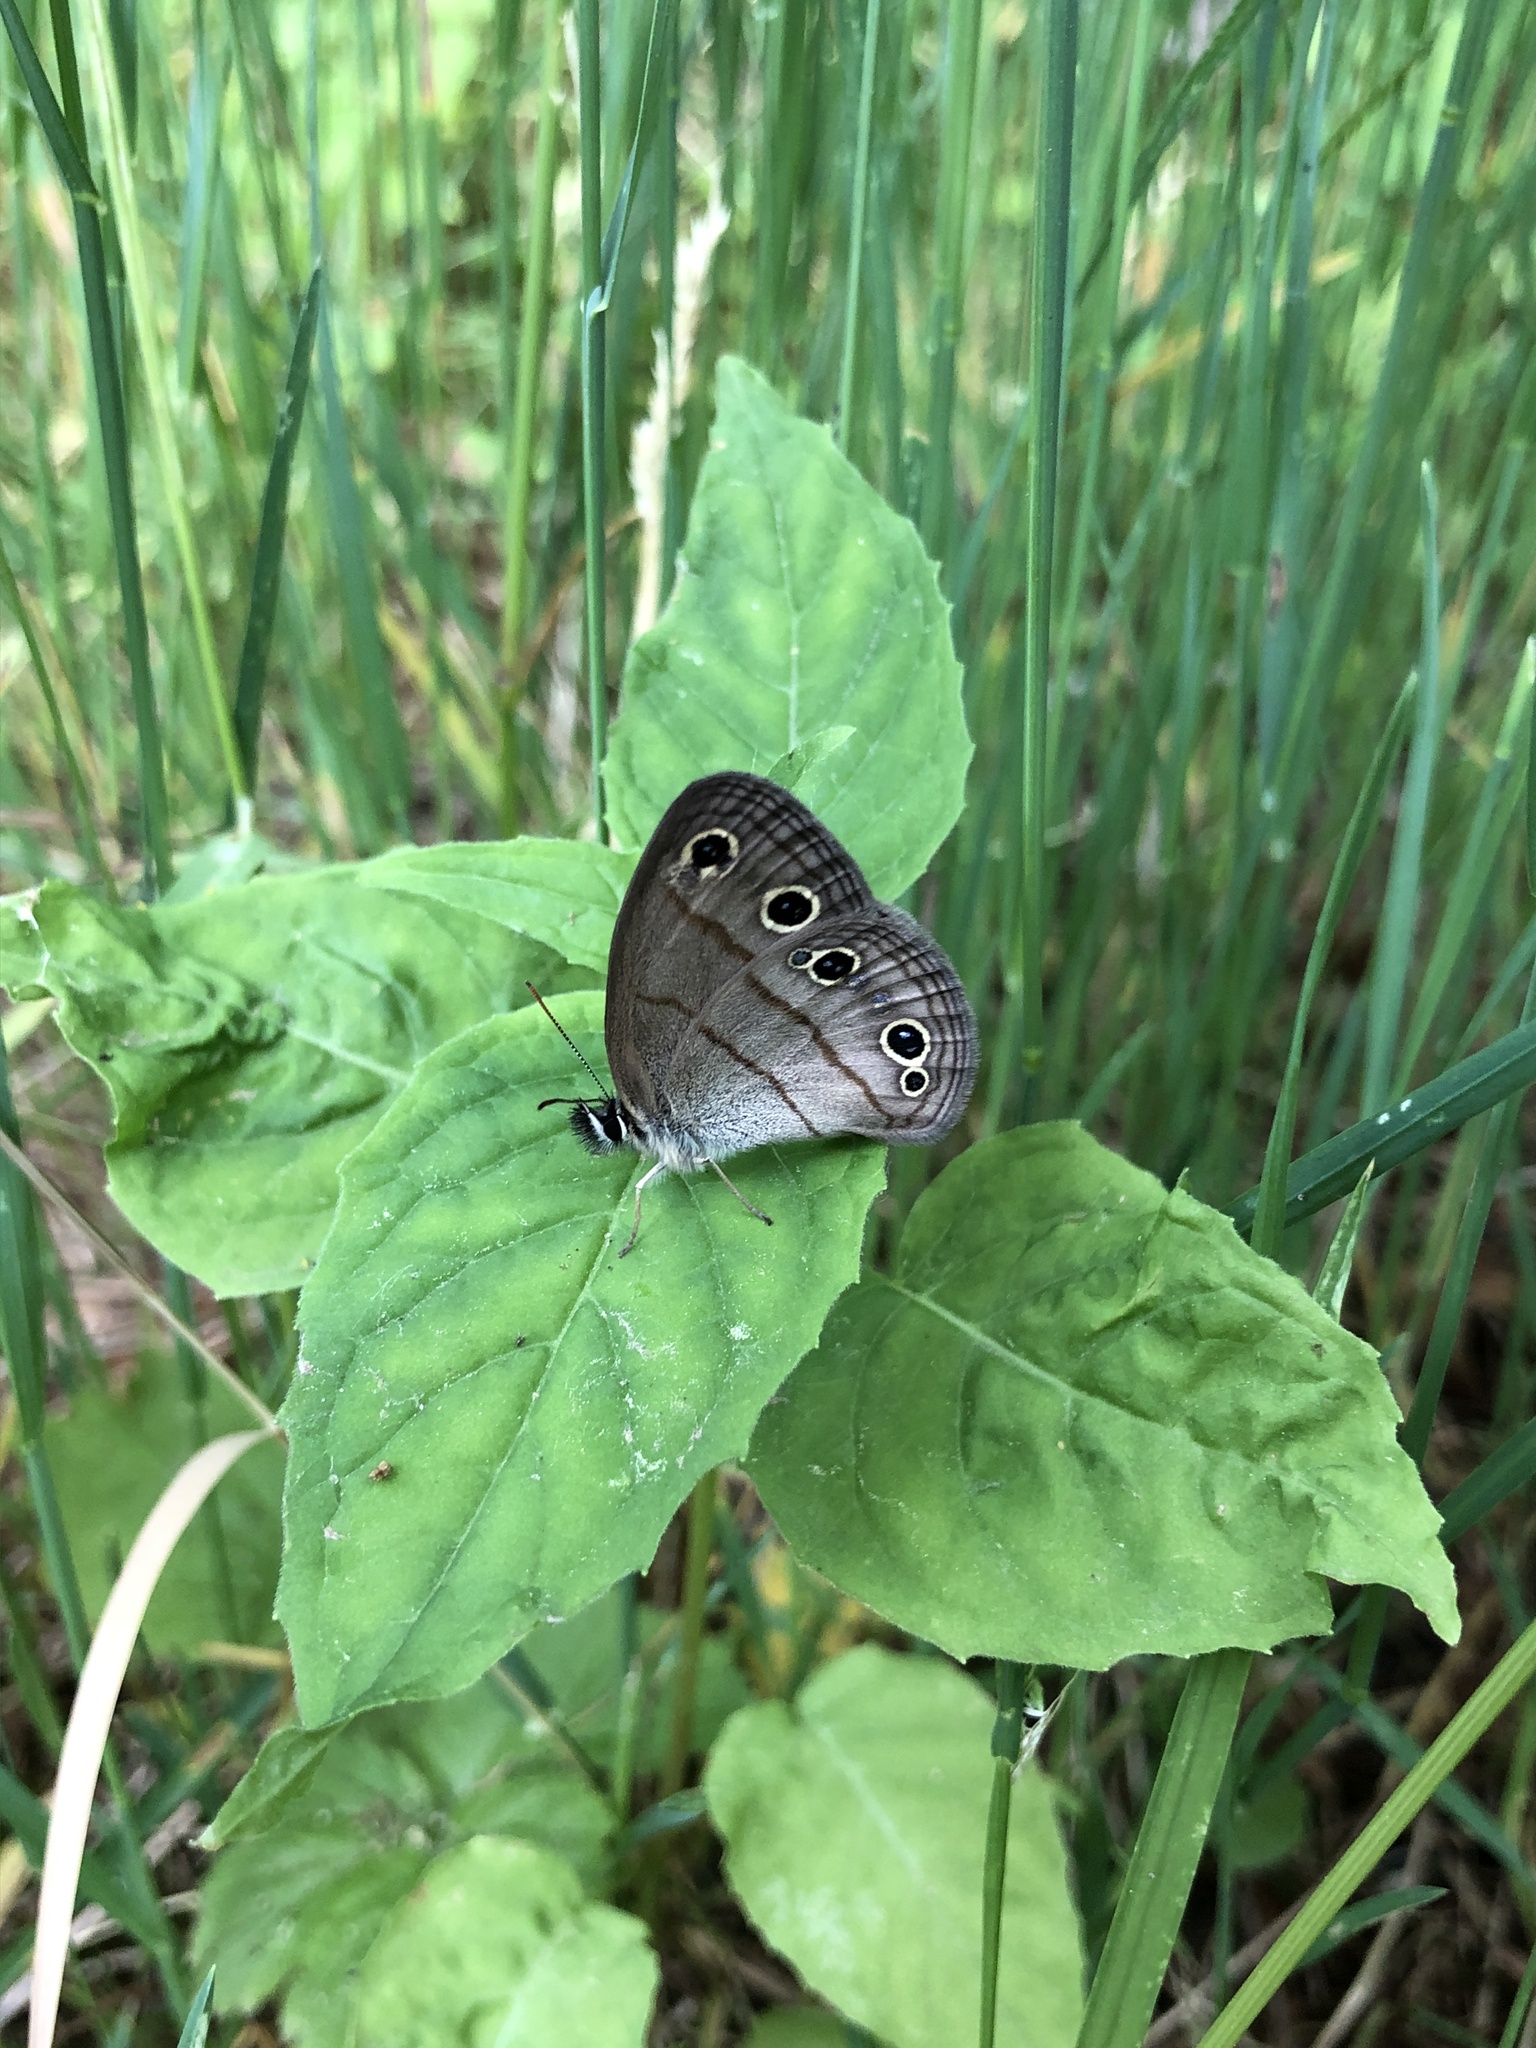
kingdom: Animalia
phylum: Arthropoda
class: Insecta
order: Lepidoptera
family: Nymphalidae
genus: Euptychia
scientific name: Euptychia cymela
